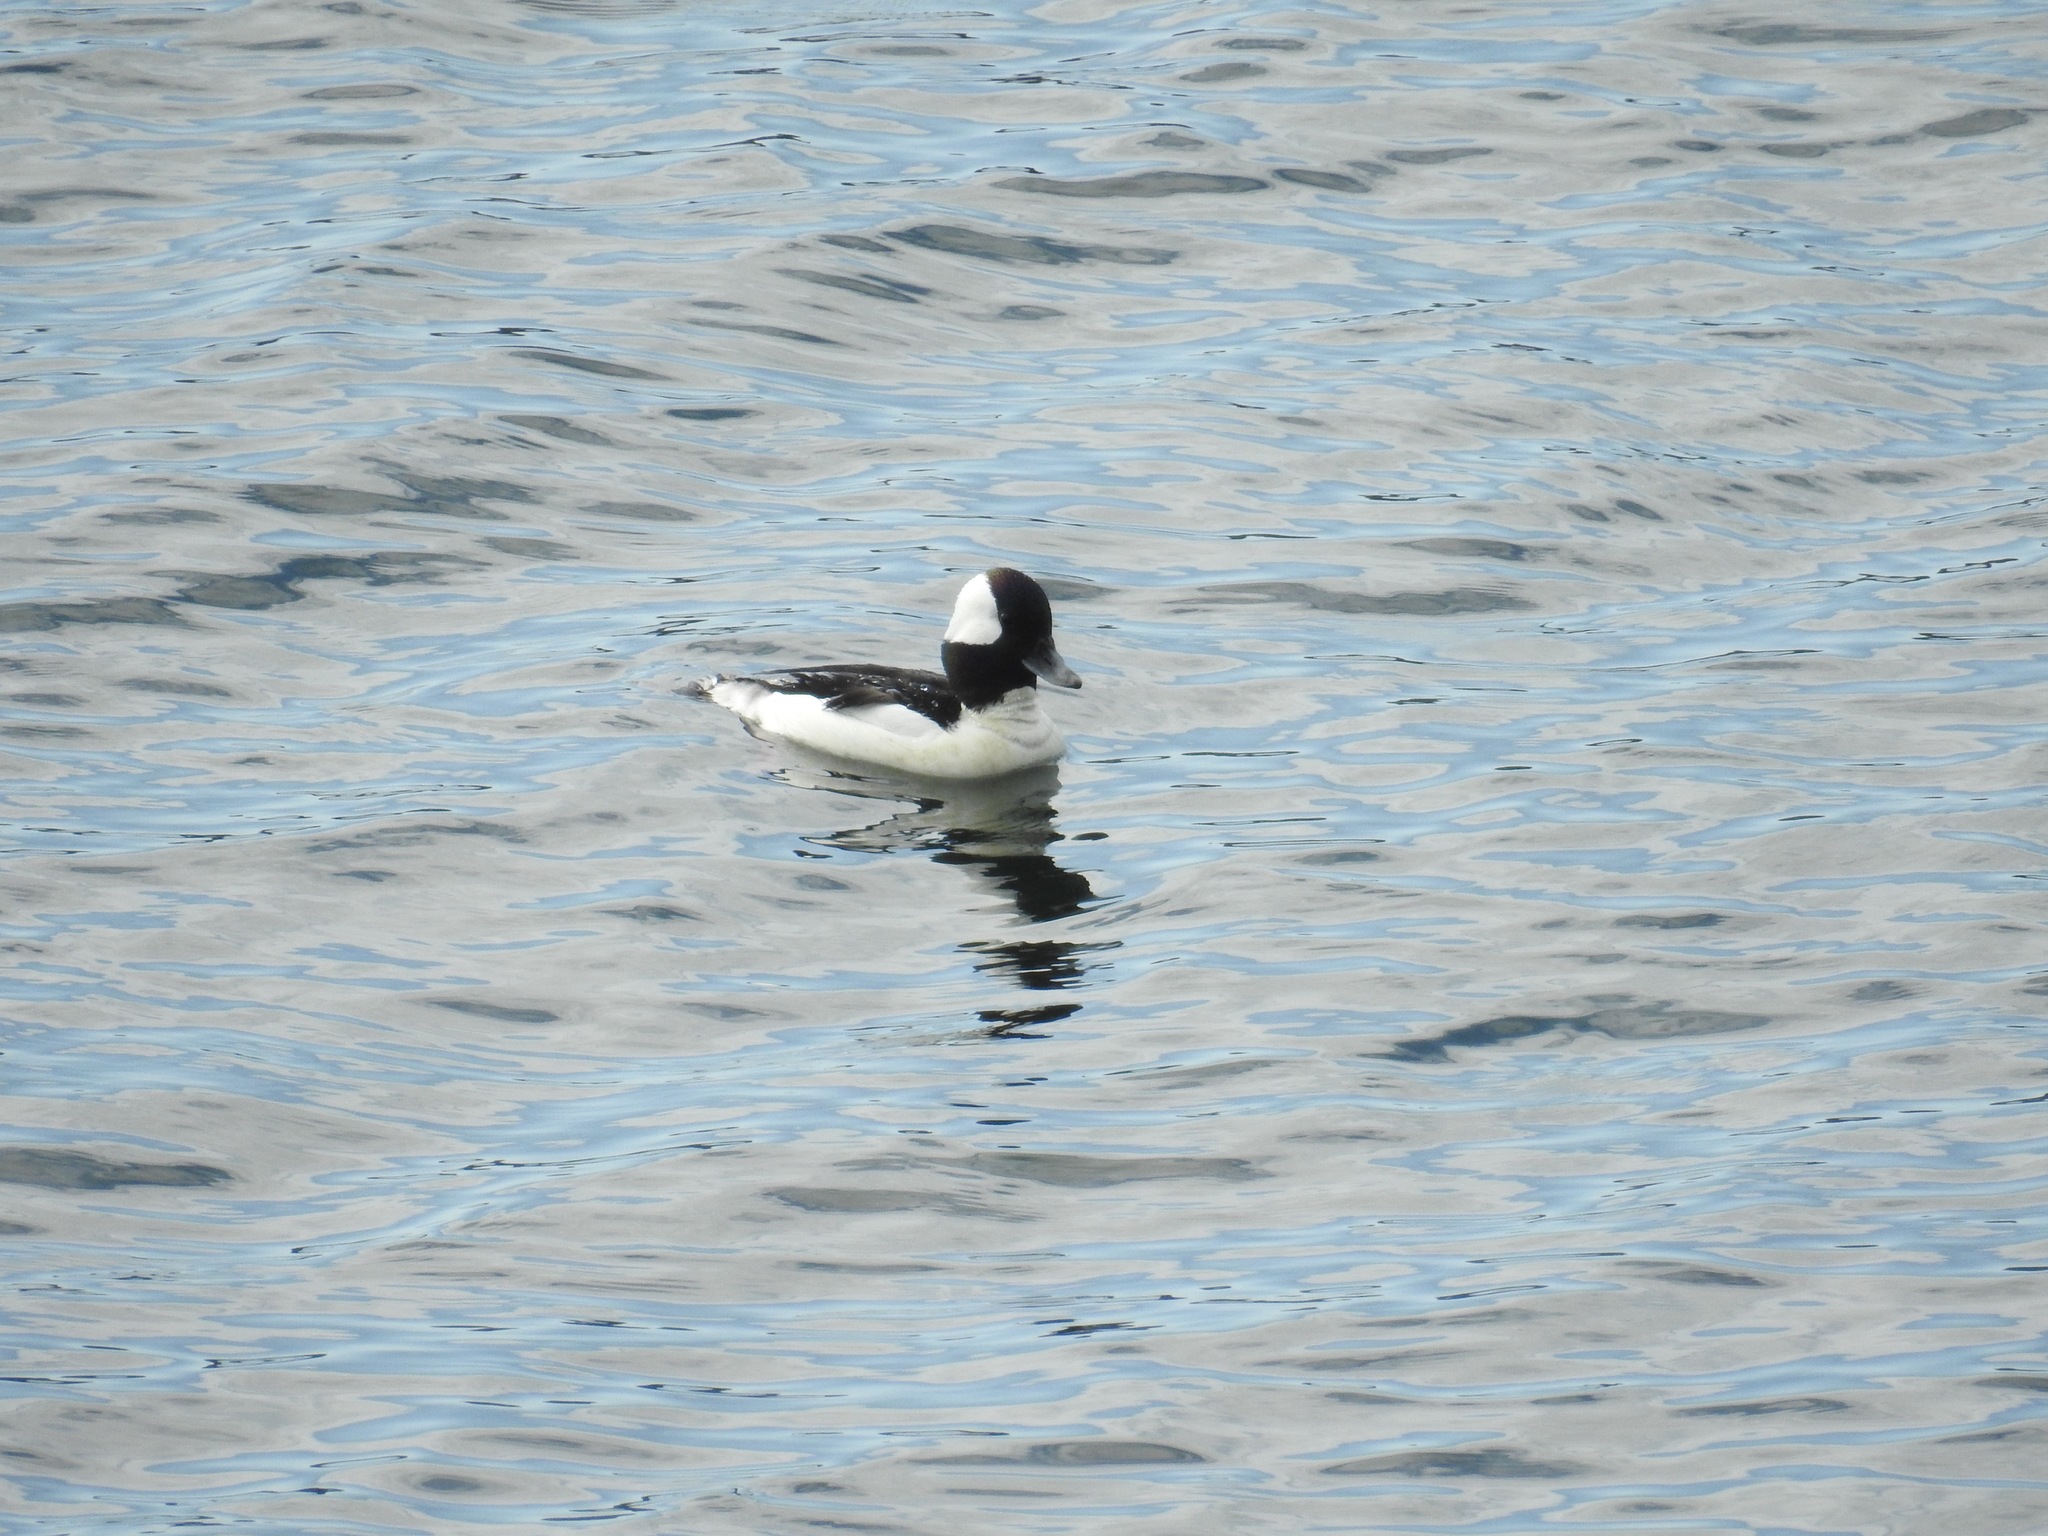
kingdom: Animalia
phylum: Chordata
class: Aves
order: Anseriformes
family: Anatidae
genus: Bucephala
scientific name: Bucephala albeola
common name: Bufflehead
